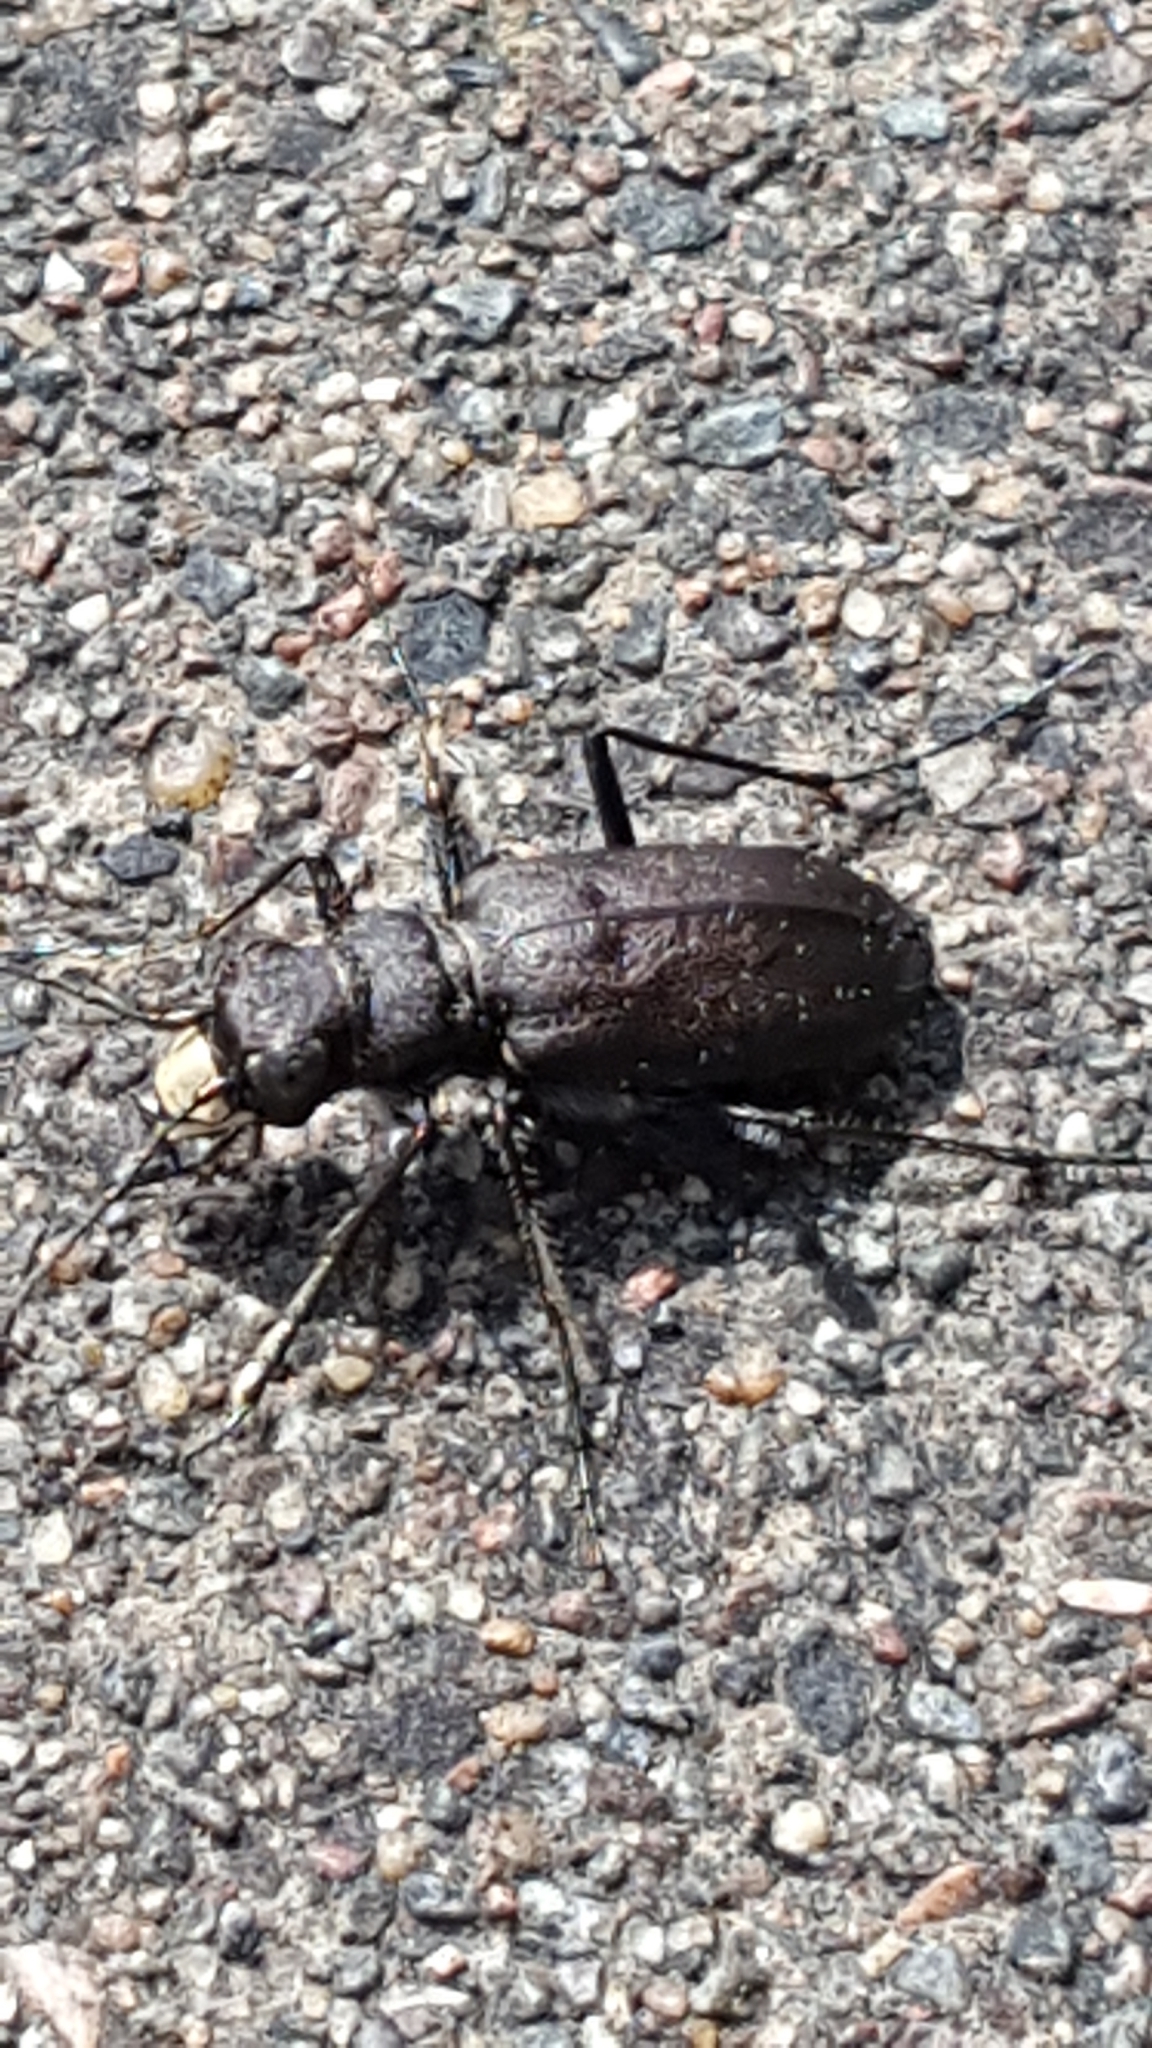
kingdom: Animalia
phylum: Arthropoda
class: Insecta
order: Coleoptera
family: Carabidae
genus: Cicindela
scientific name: Cicindela longilabris
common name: Boreal long-lipped tiger beetle
